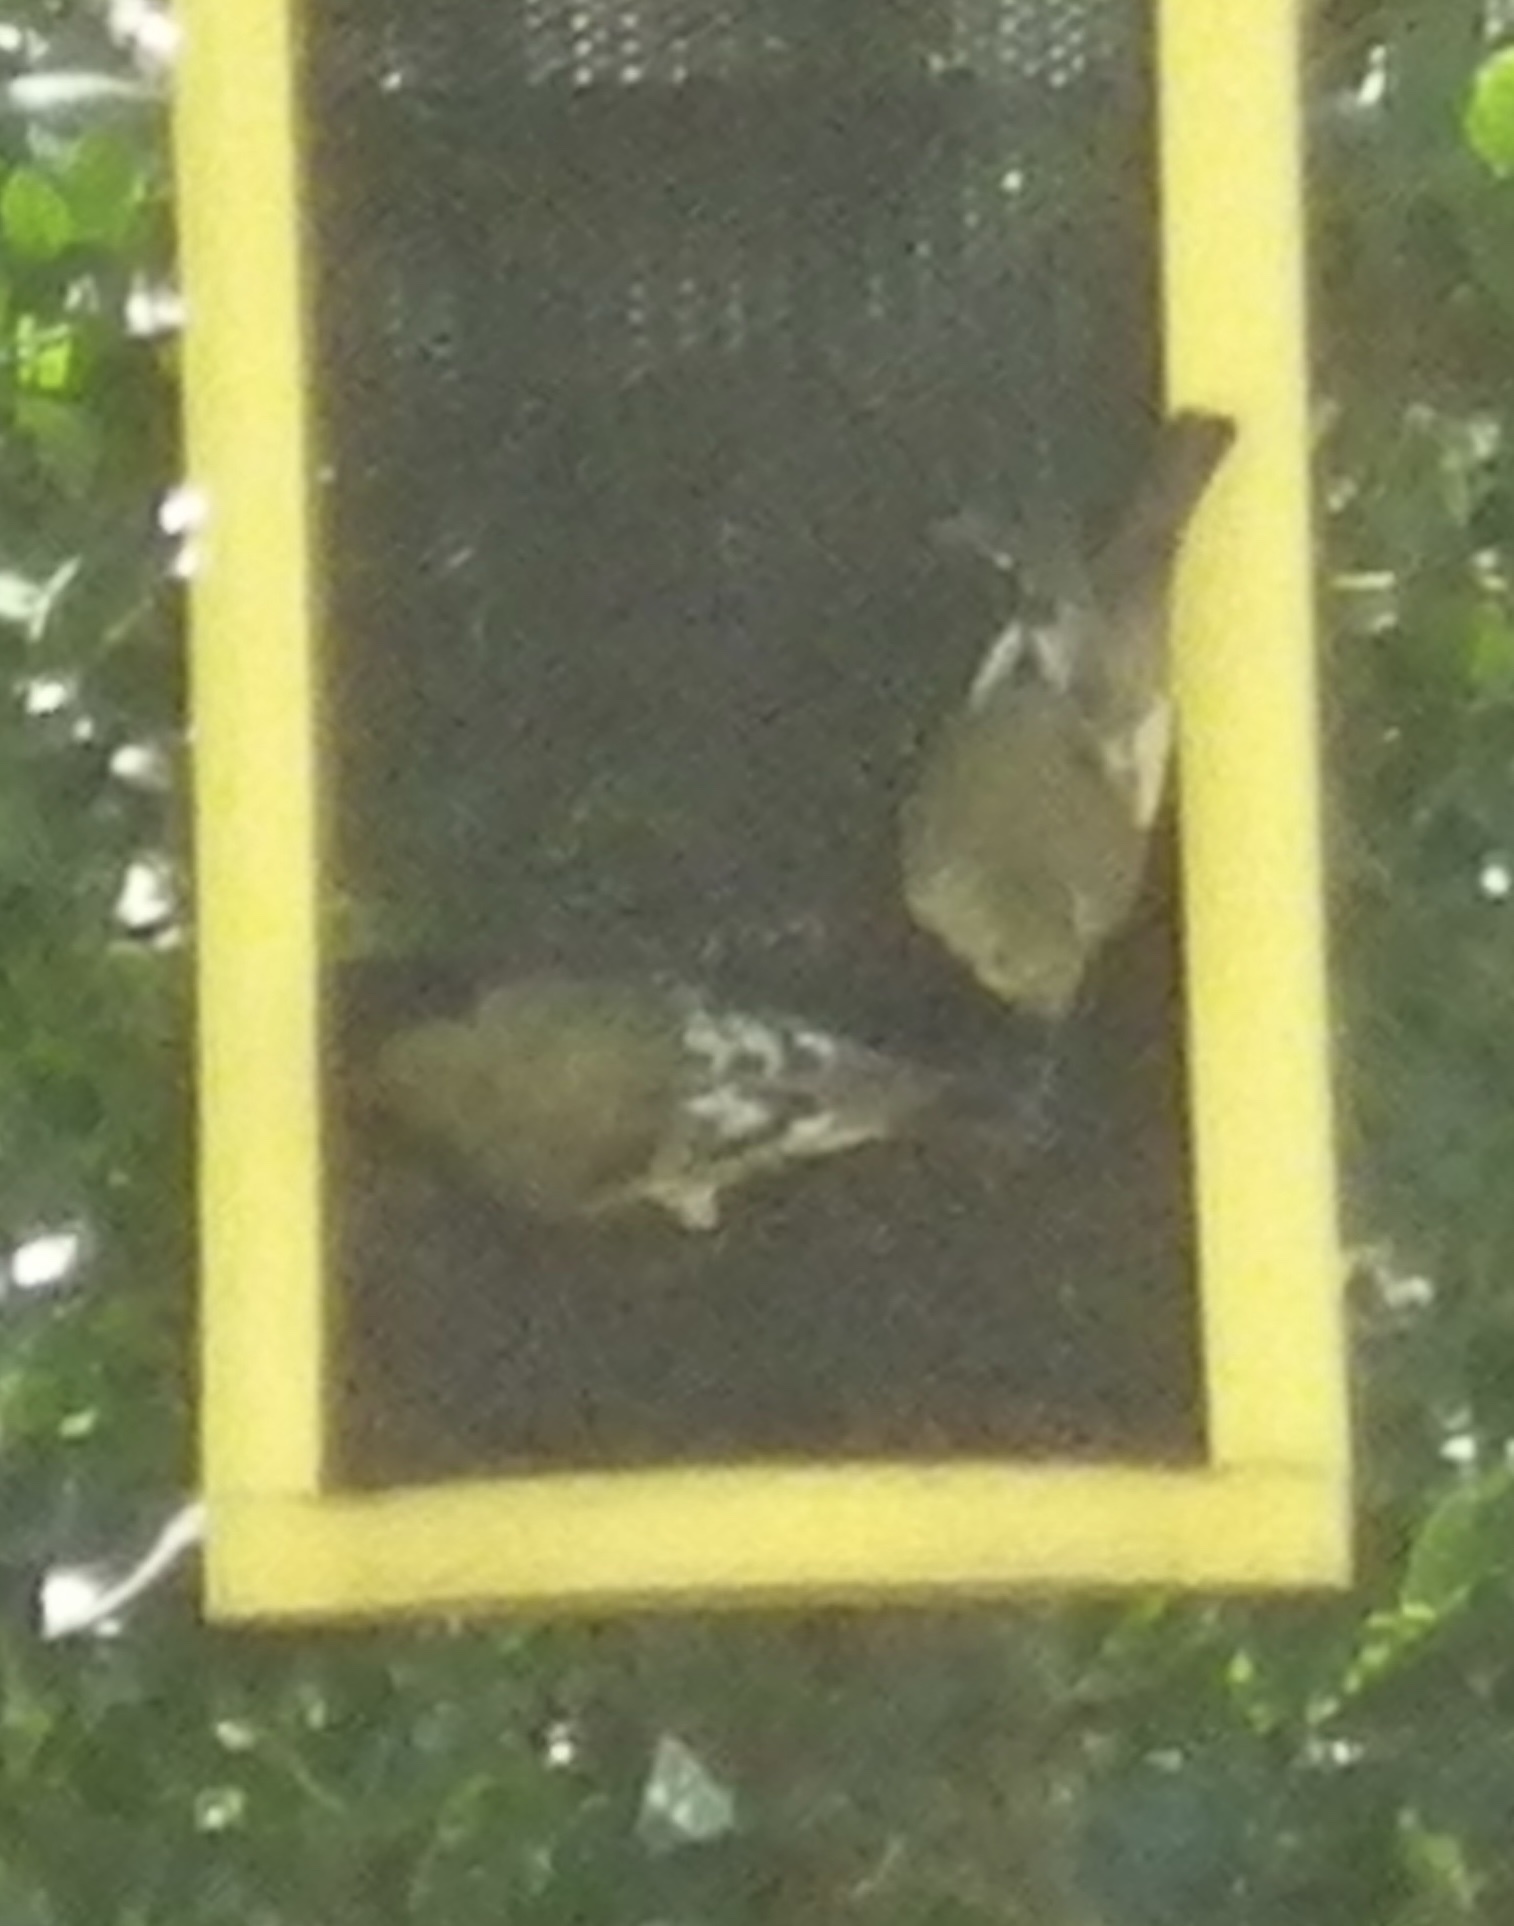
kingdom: Animalia
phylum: Chordata
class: Aves
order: Passeriformes
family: Fringillidae
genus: Spinus
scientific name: Spinus psaltria
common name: Lesser goldfinch
